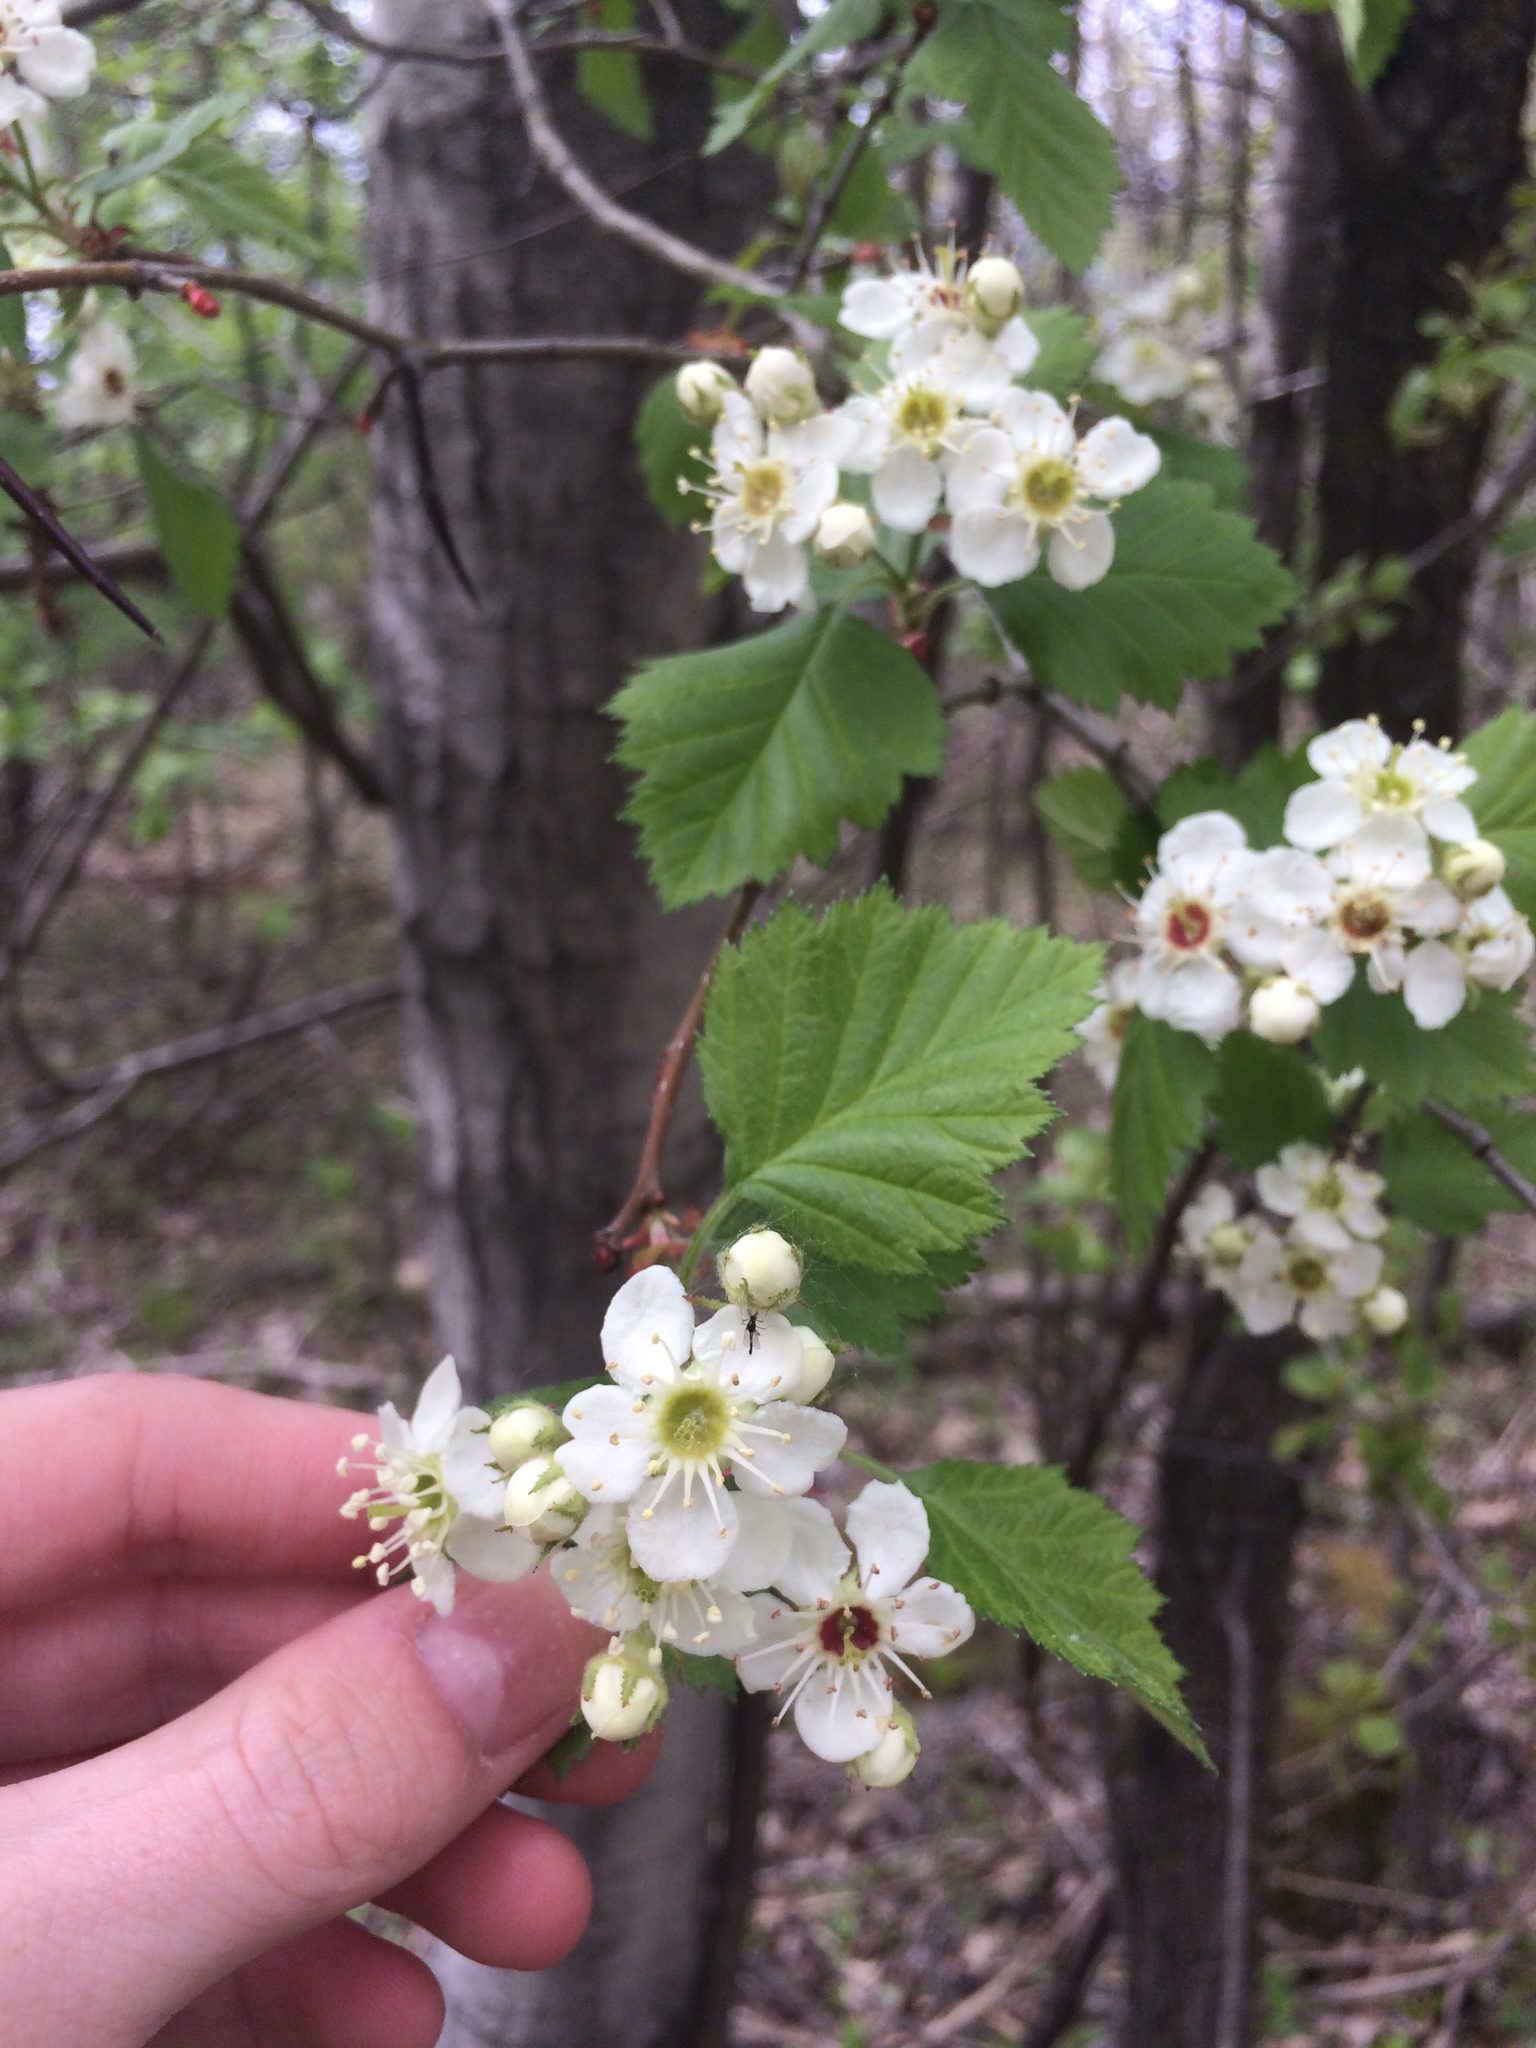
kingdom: Plantae
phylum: Tracheophyta
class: Magnoliopsida
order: Rosales
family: Rosaceae
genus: Crataegus
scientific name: Crataegus submollis
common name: Hairy cockspurthorn
